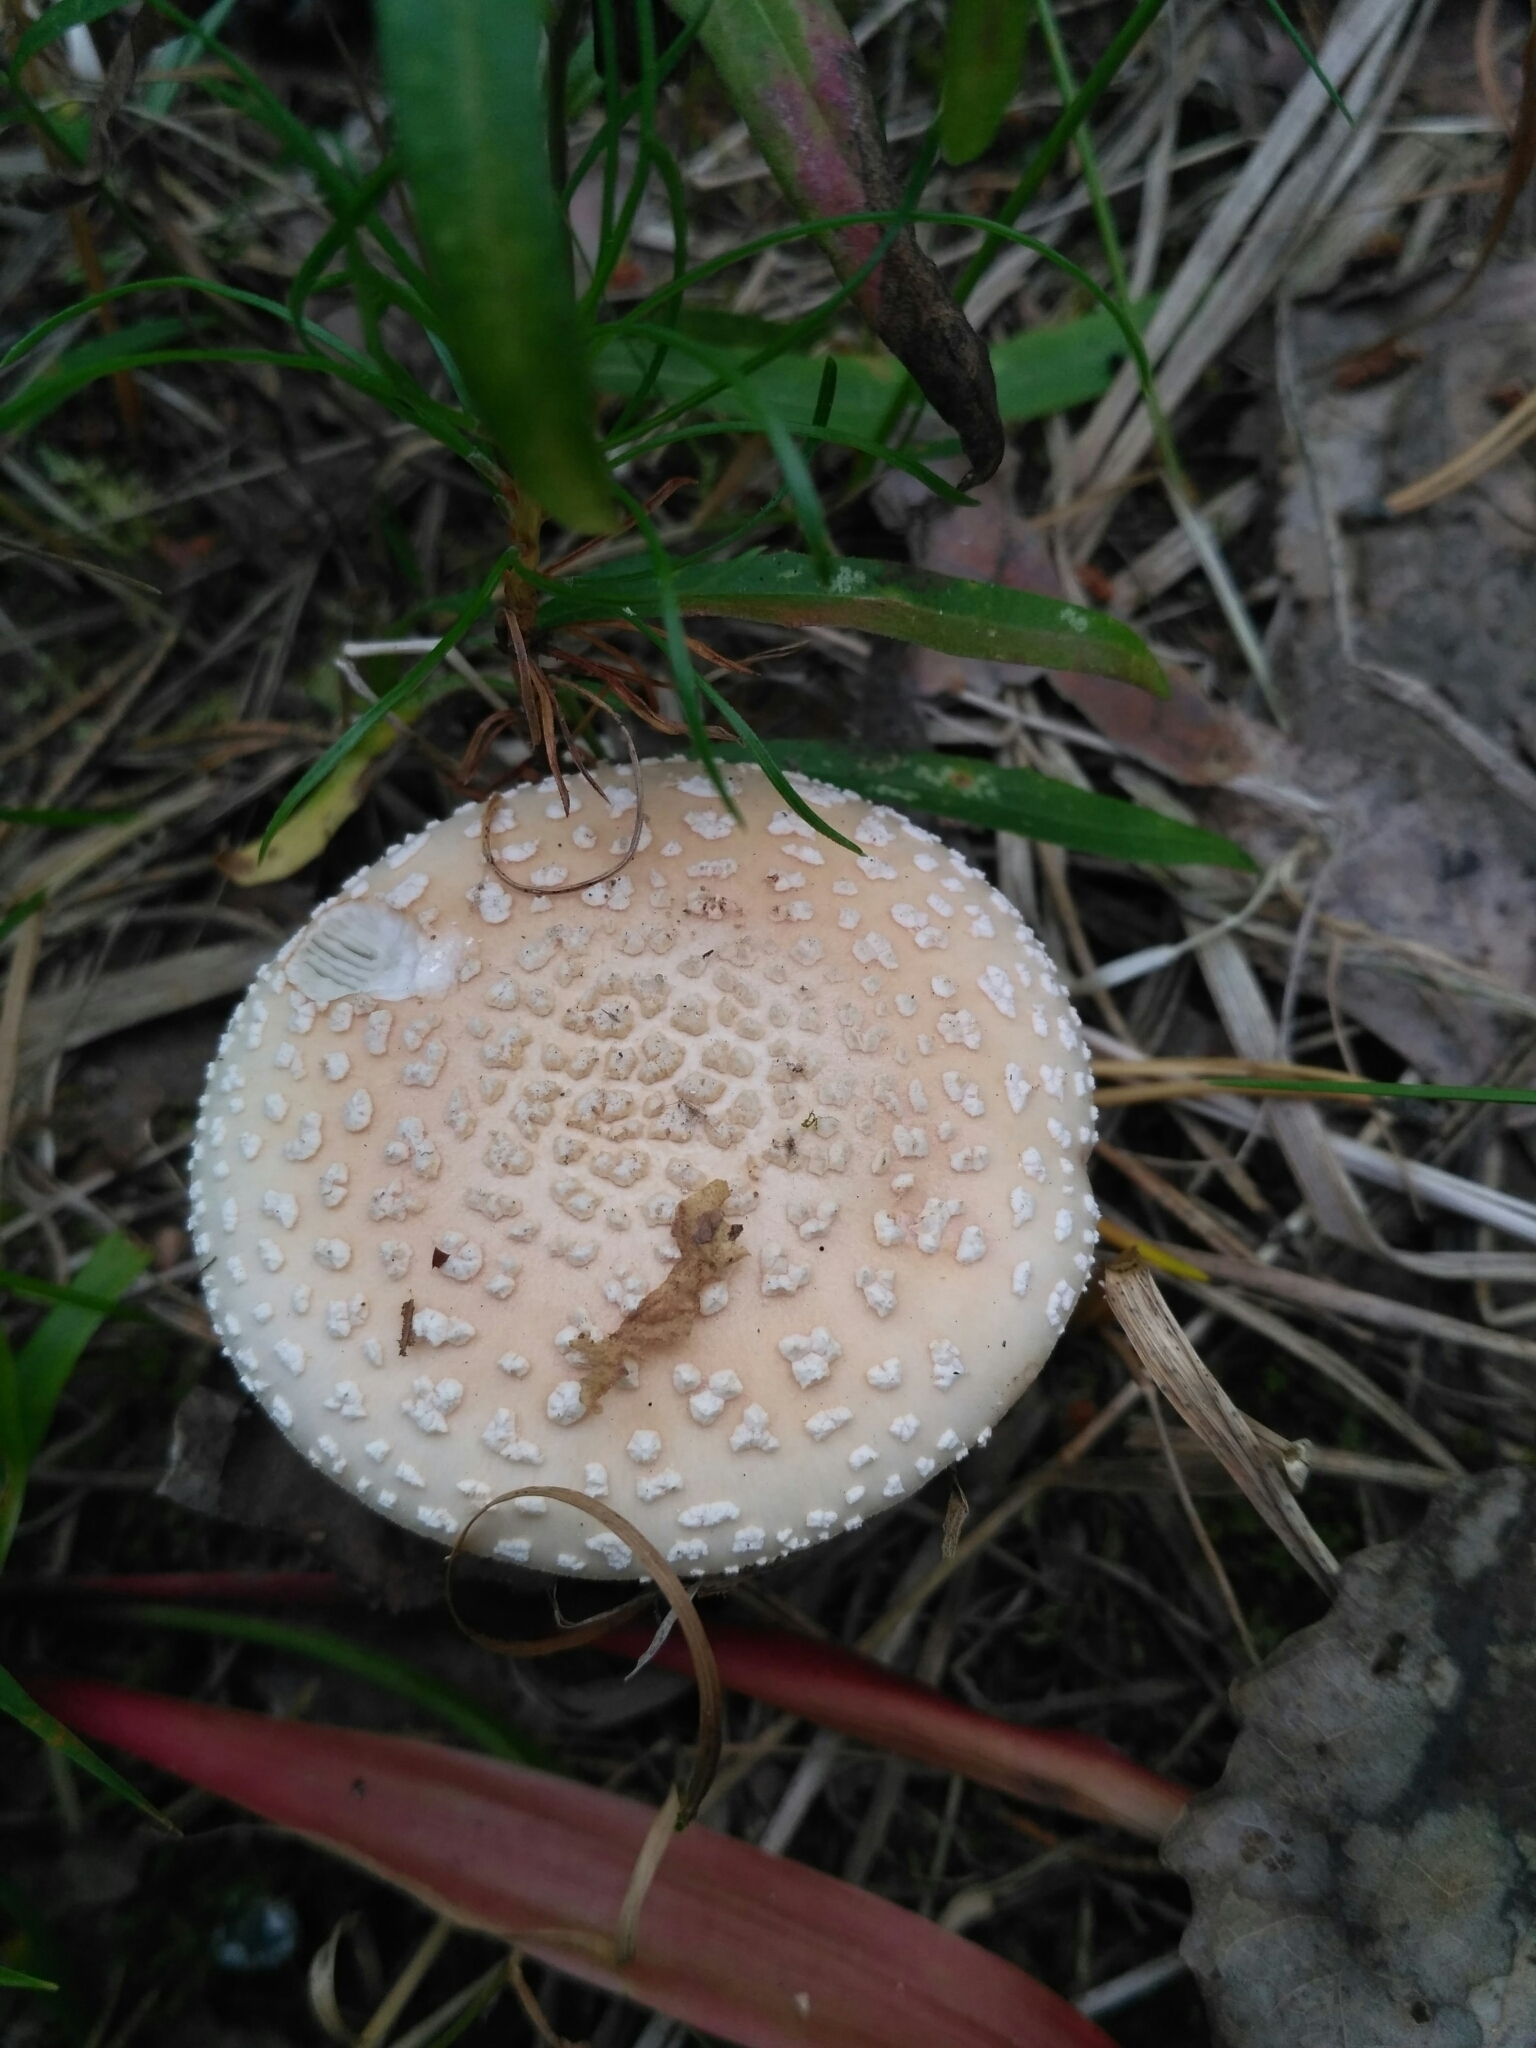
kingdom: Fungi
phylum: Basidiomycota
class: Agaricomycetes
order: Agaricales
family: Amanitaceae
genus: Amanita
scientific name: Amanita rubescens
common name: Blusher
